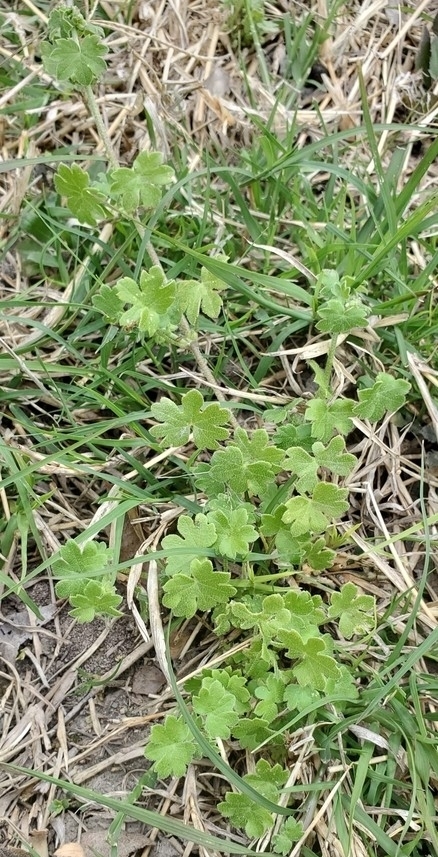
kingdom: Plantae
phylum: Tracheophyta
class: Magnoliopsida
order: Apiales
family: Apiaceae
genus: Bowlesia
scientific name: Bowlesia incana
